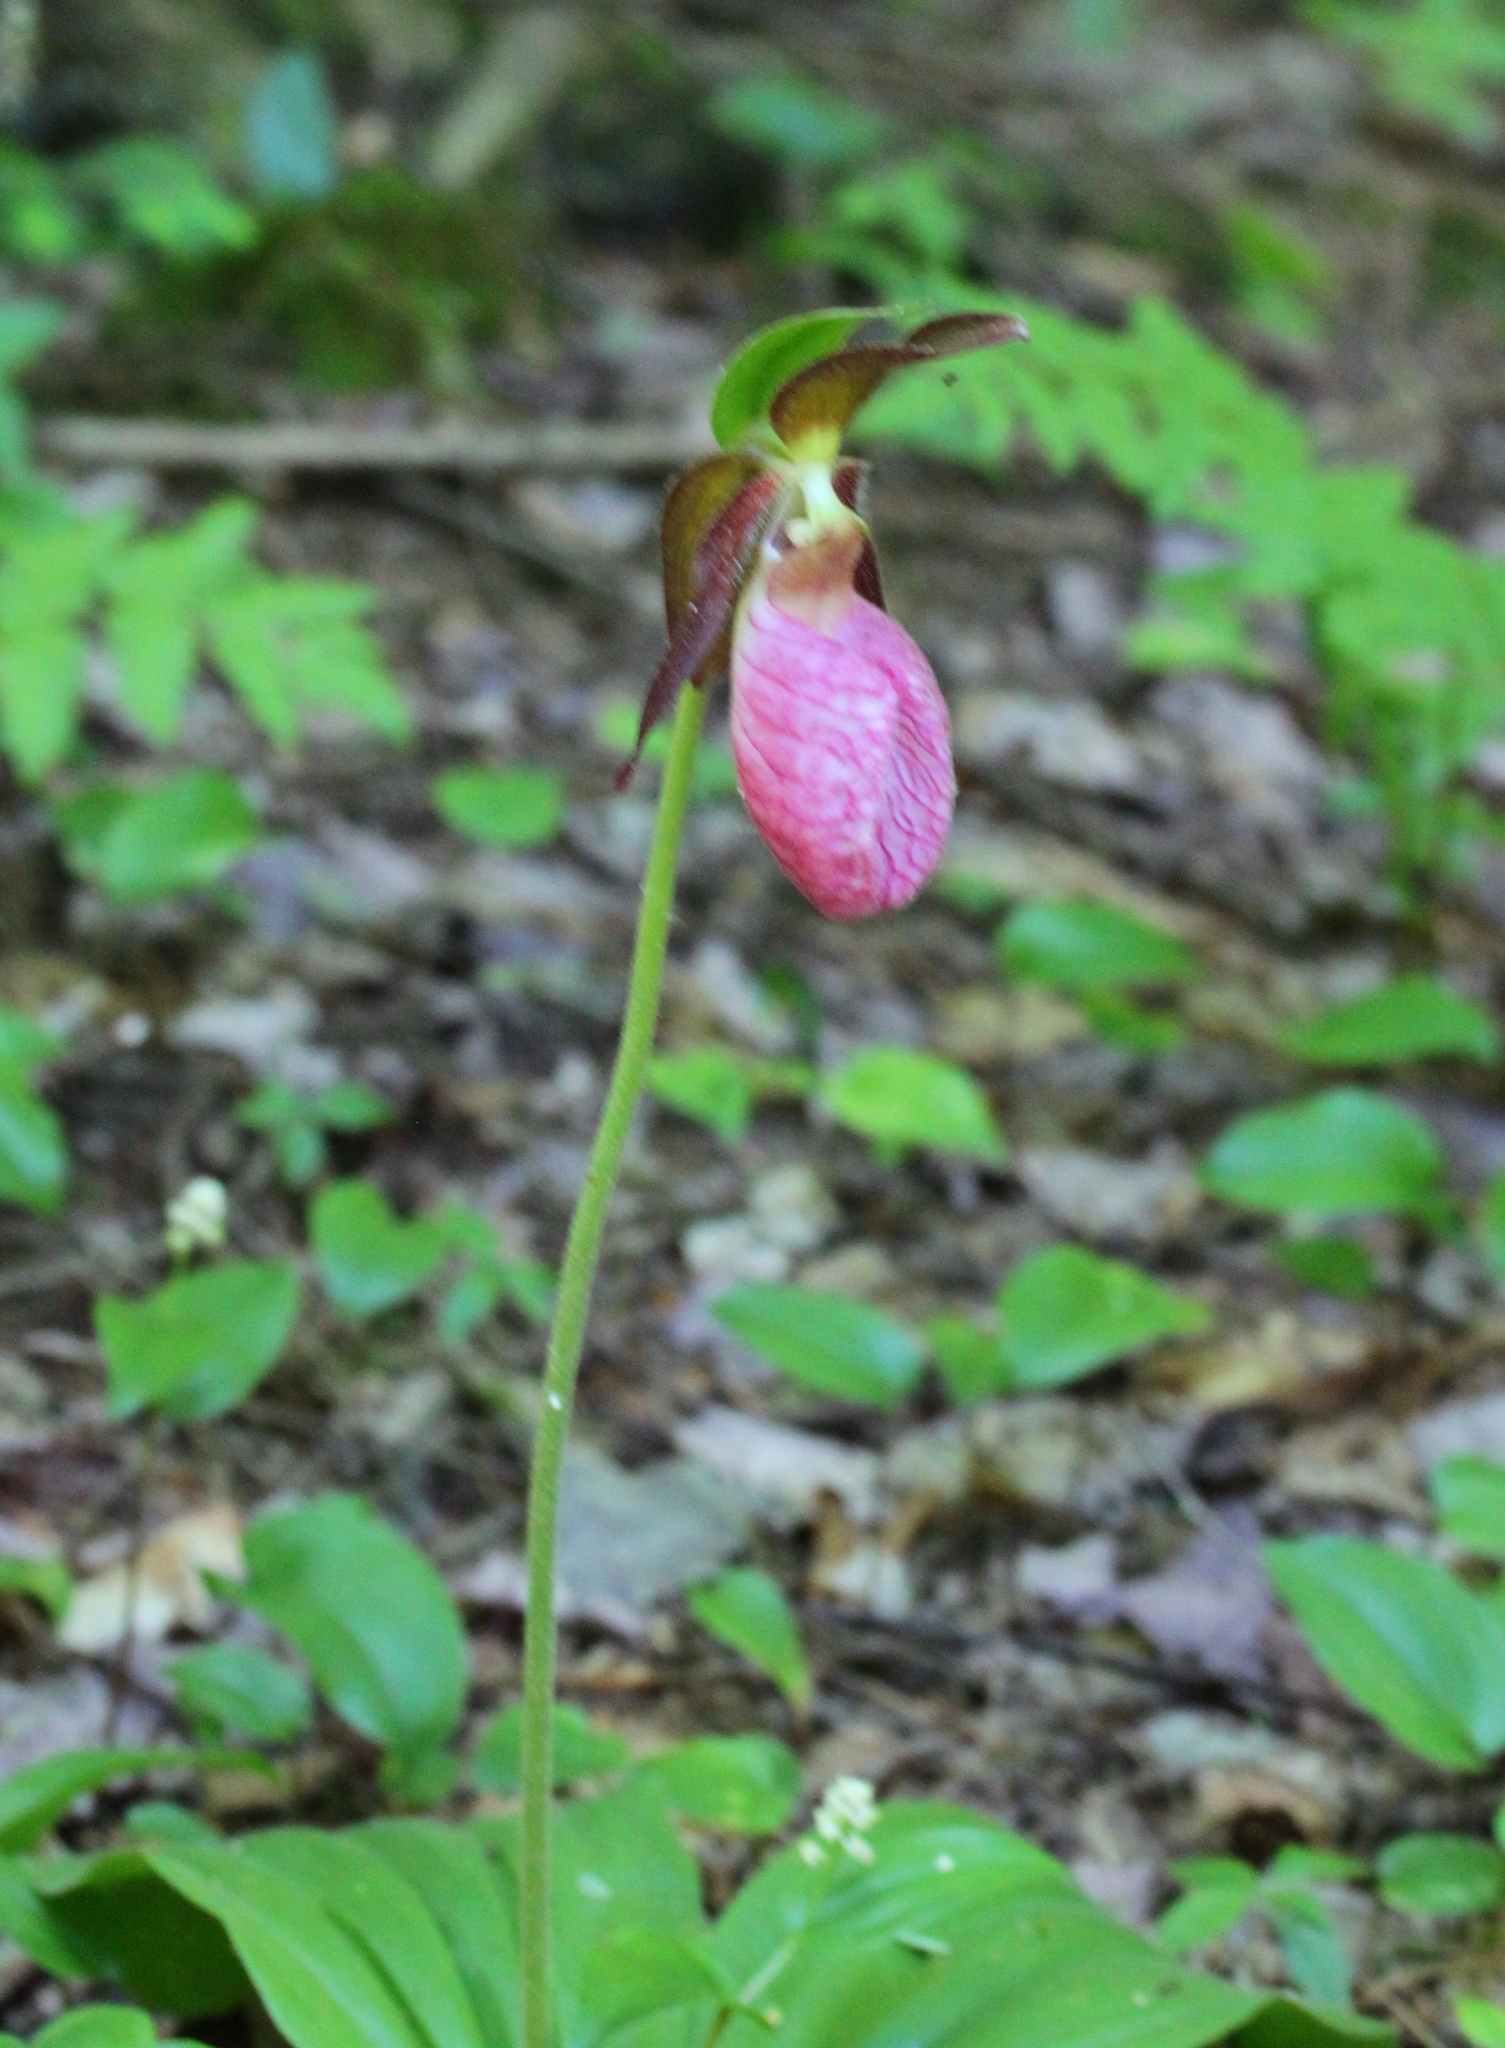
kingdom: Plantae
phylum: Tracheophyta
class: Liliopsida
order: Asparagales
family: Orchidaceae
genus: Cypripedium
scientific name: Cypripedium acaule
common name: Pink lady's-slipper
